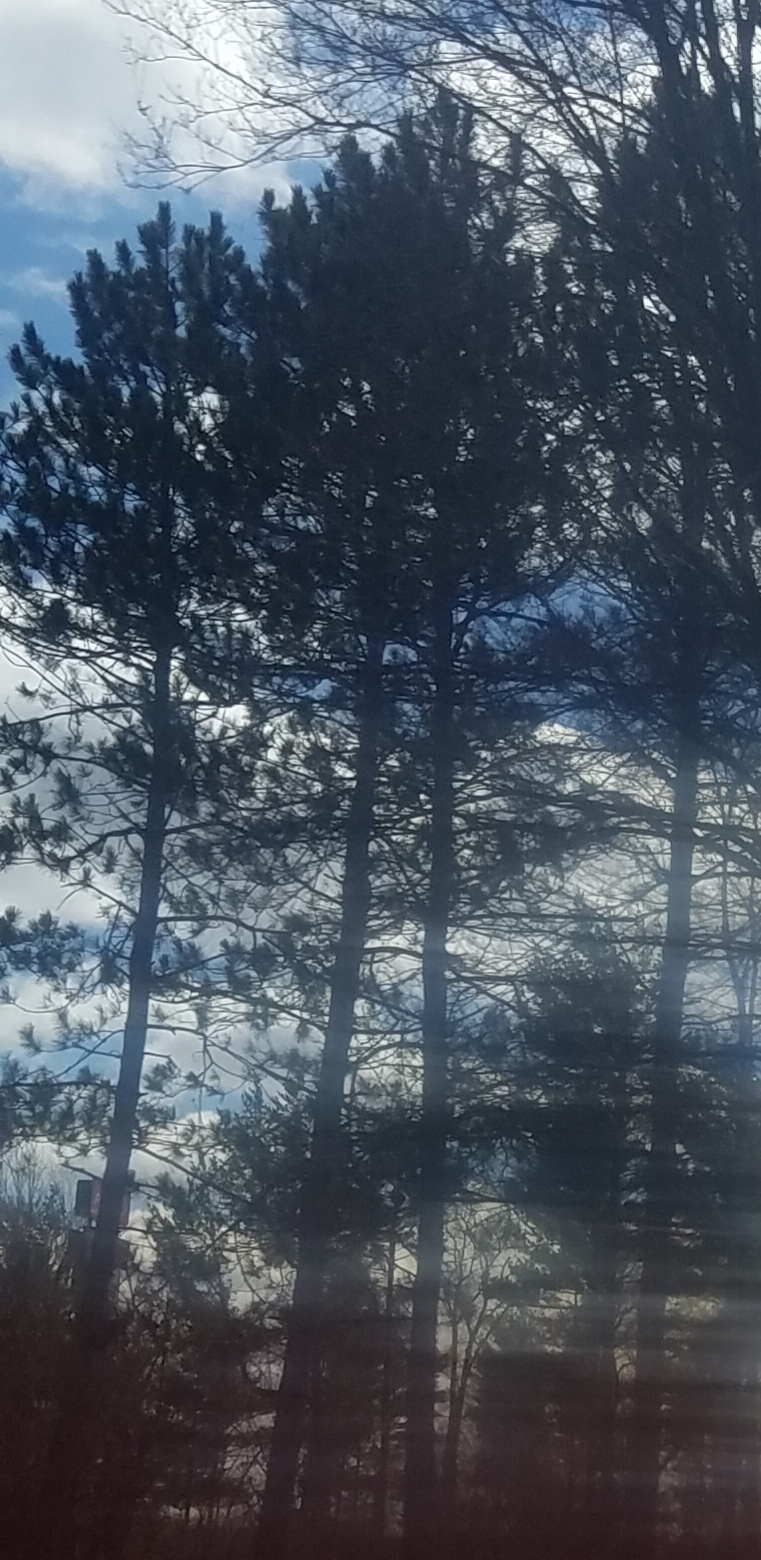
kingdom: Plantae
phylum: Tracheophyta
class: Pinopsida
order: Pinales
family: Pinaceae
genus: Pinus
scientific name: Pinus resinosa
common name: Norway pine
